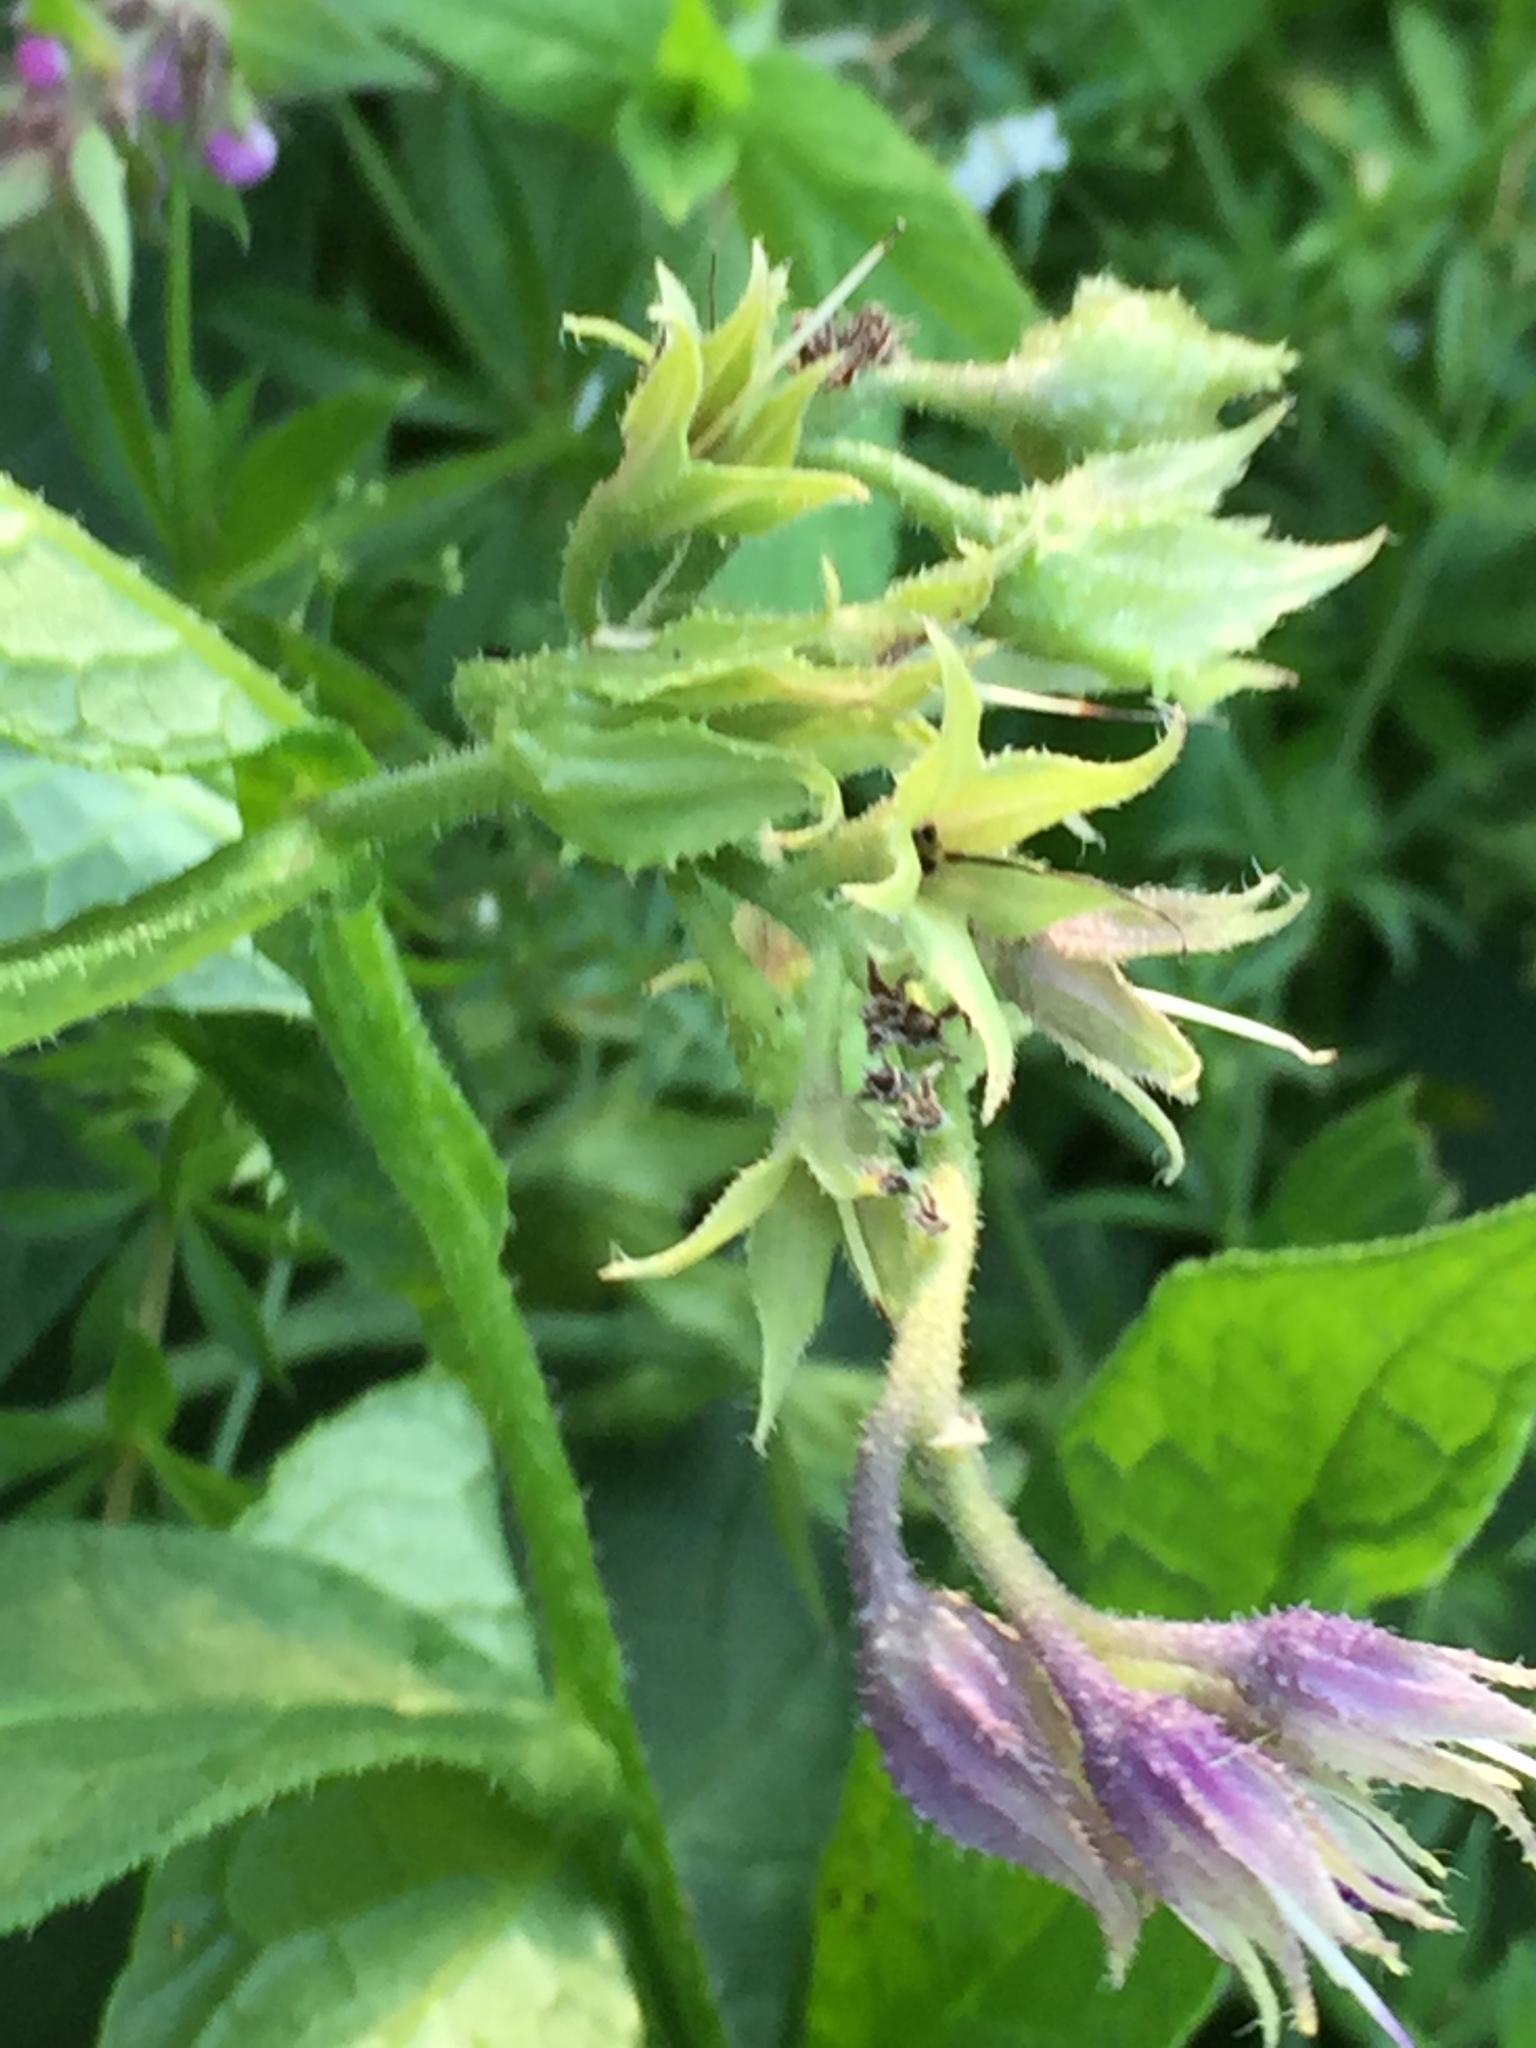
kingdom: Plantae
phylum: Tracheophyta
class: Magnoliopsida
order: Boraginales
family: Boraginaceae
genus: Symphytum
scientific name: Symphytum officinale
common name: Common comfrey
